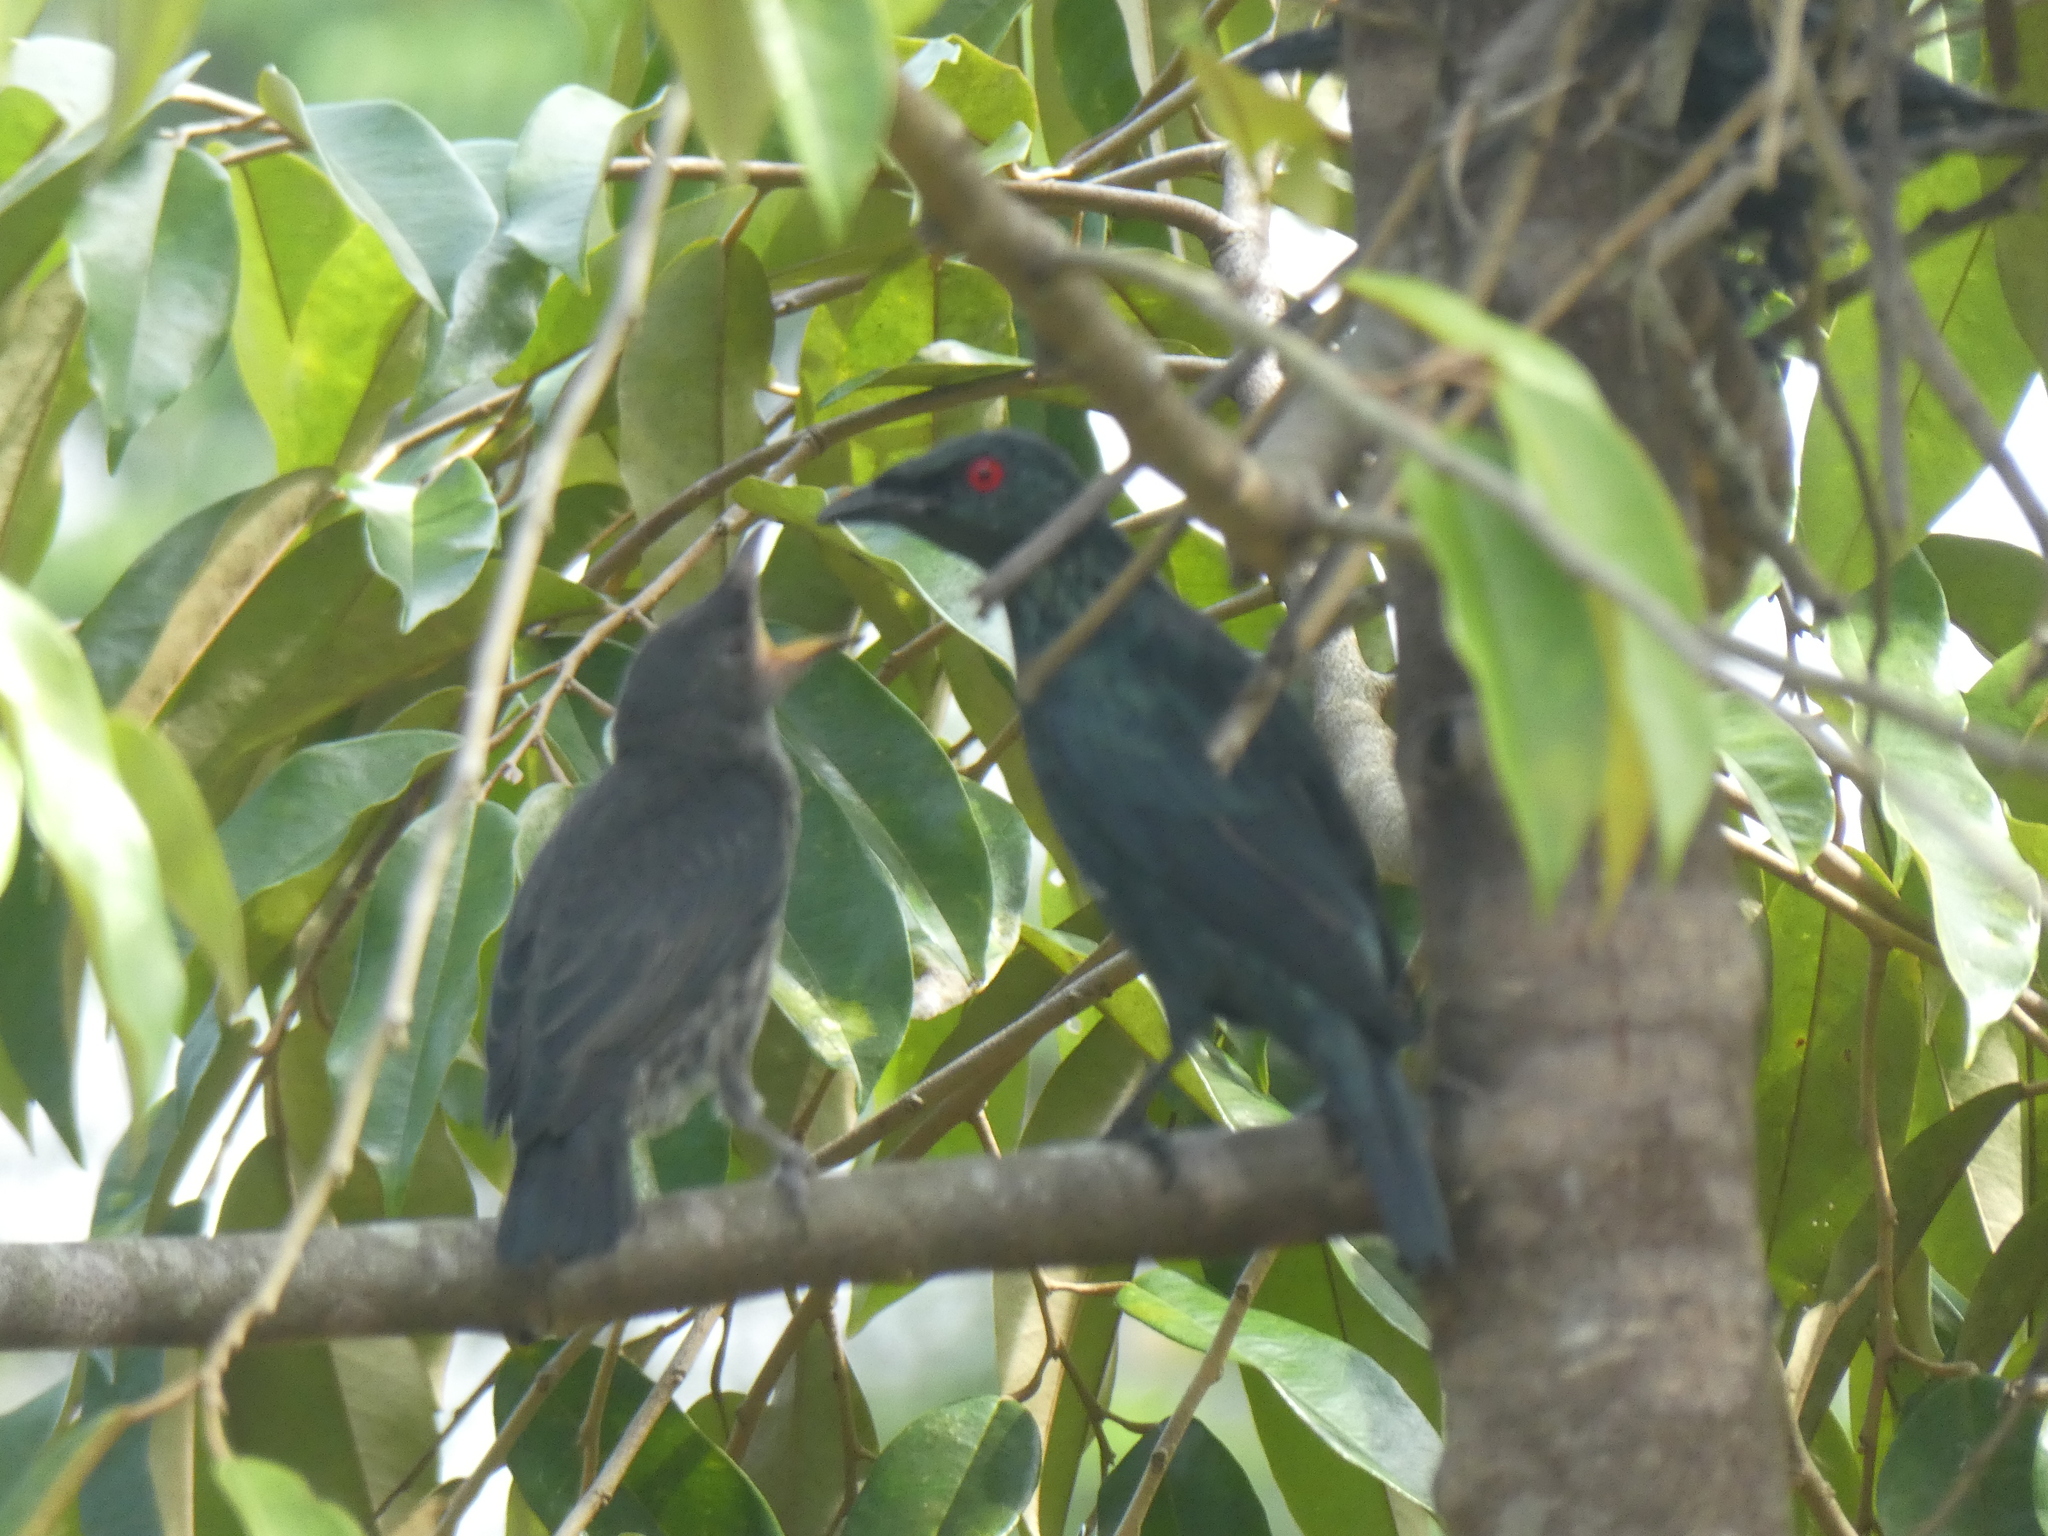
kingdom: Animalia
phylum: Chordata
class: Aves
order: Passeriformes
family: Sturnidae
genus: Aplonis
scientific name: Aplonis panayensis
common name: Asian glossy starling
